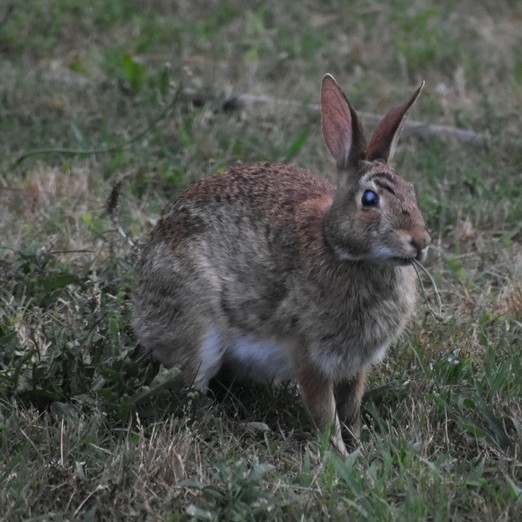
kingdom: Animalia
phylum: Chordata
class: Mammalia
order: Lagomorpha
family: Leporidae
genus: Sylvilagus
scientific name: Sylvilagus floridanus
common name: Eastern cottontail
